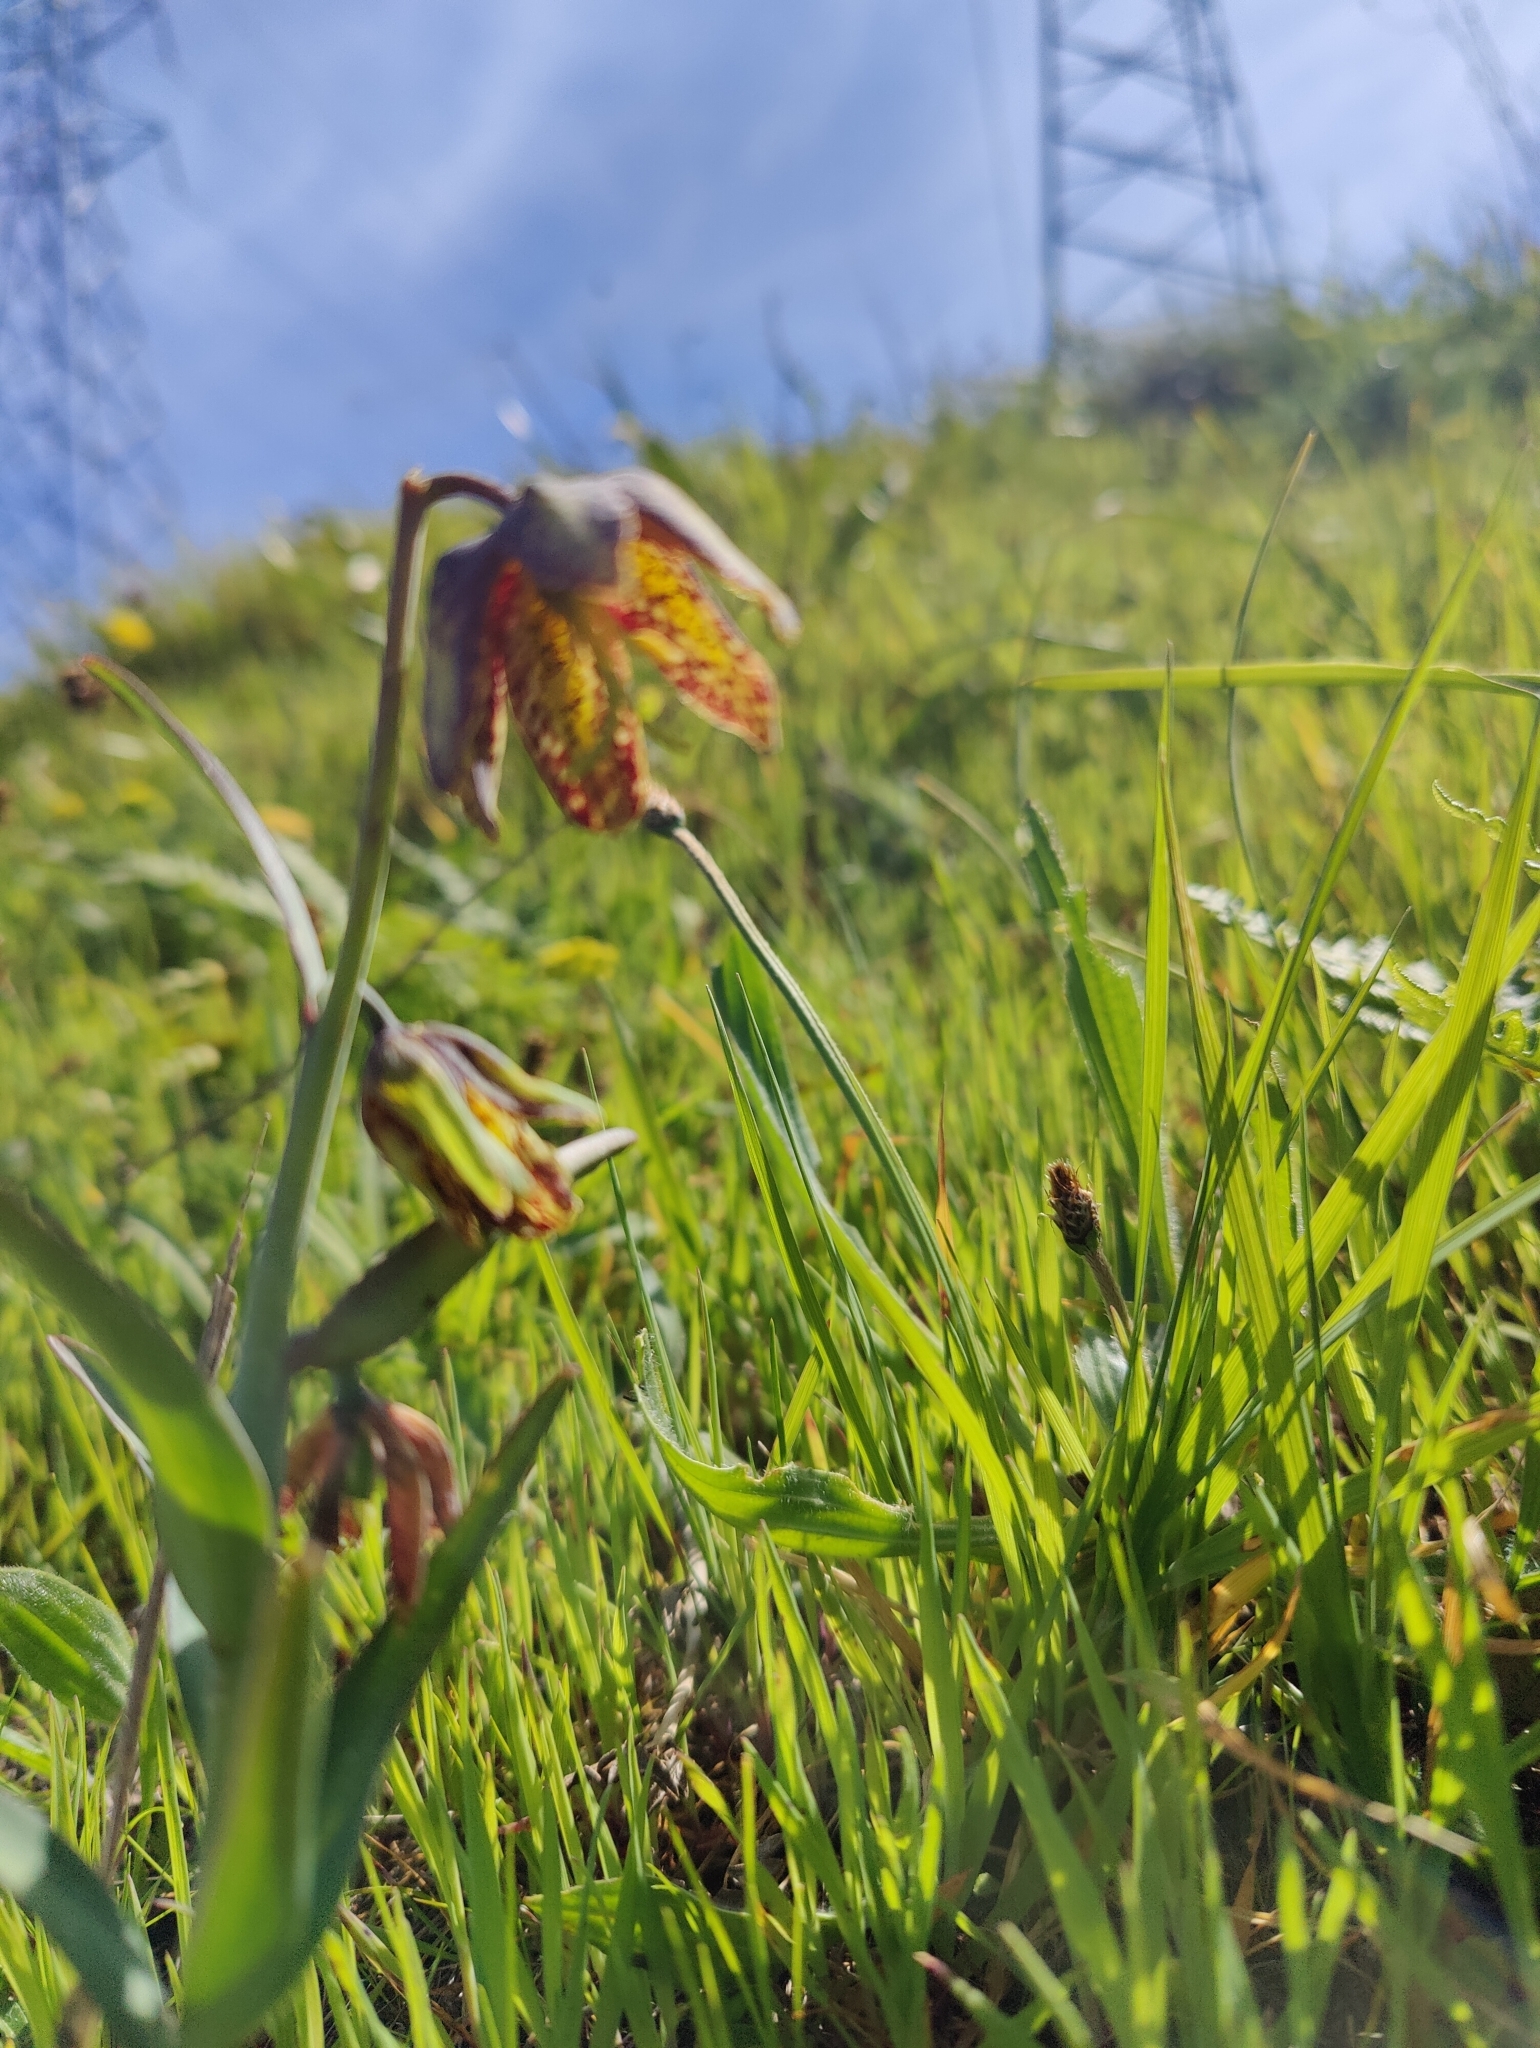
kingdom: Plantae
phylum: Tracheophyta
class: Liliopsida
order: Liliales
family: Liliaceae
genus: Fritillaria
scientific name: Fritillaria affinis
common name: Ojai fritillary
